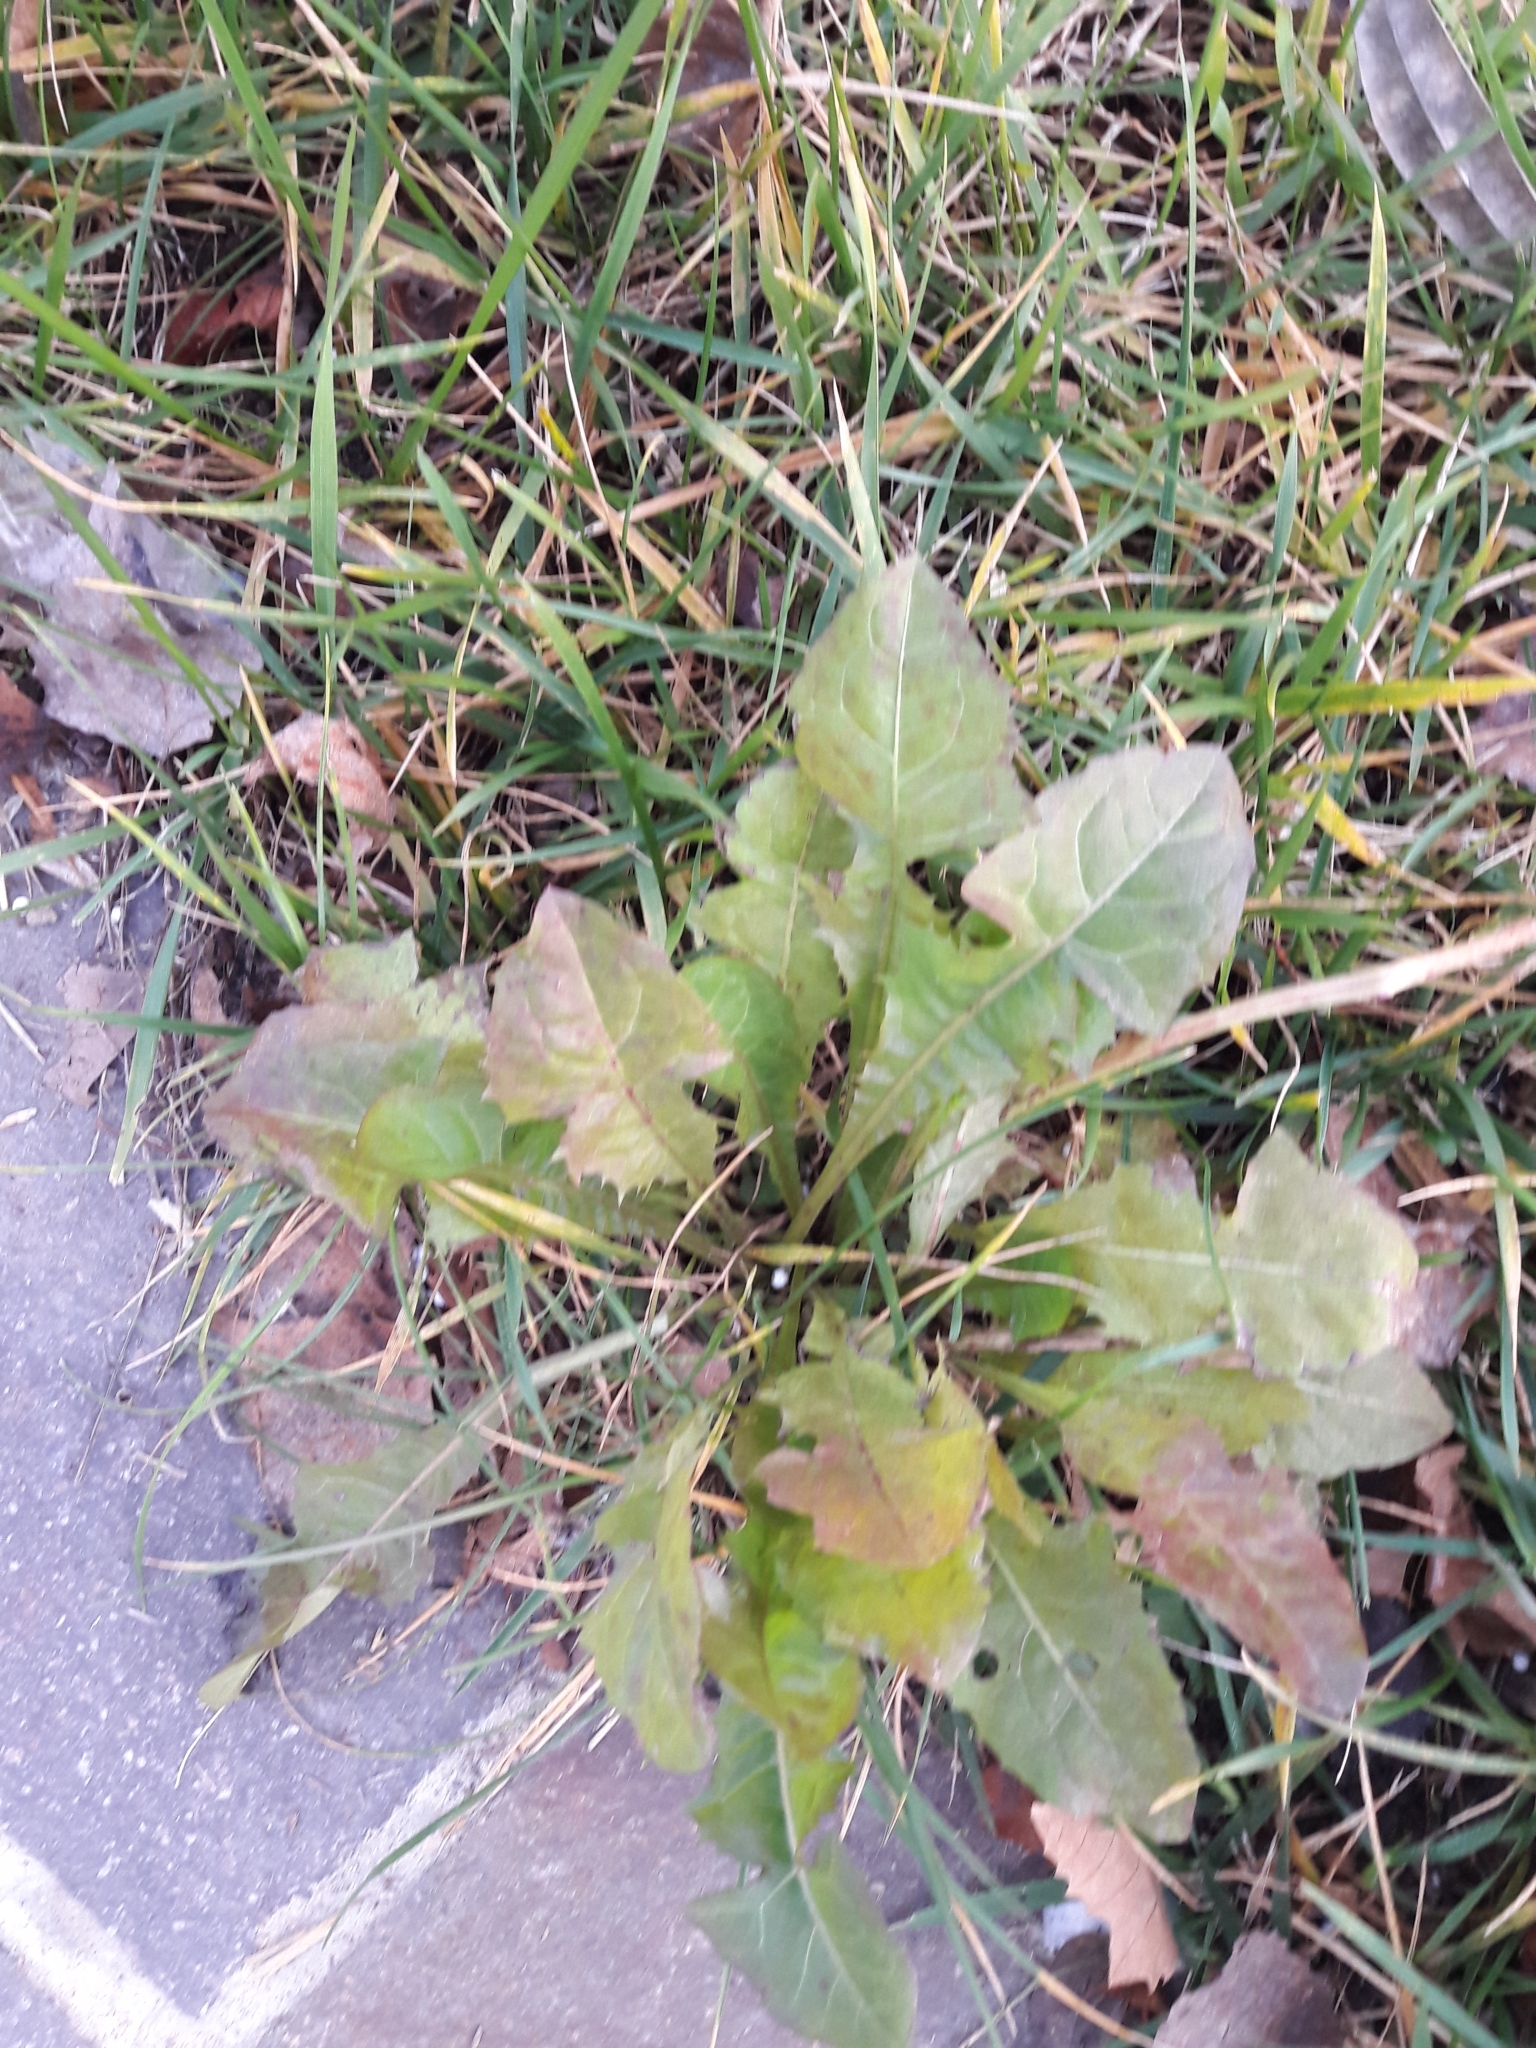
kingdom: Plantae
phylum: Tracheophyta
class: Magnoliopsida
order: Asterales
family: Asteraceae
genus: Taraxacum
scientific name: Taraxacum officinale
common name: Common dandelion
